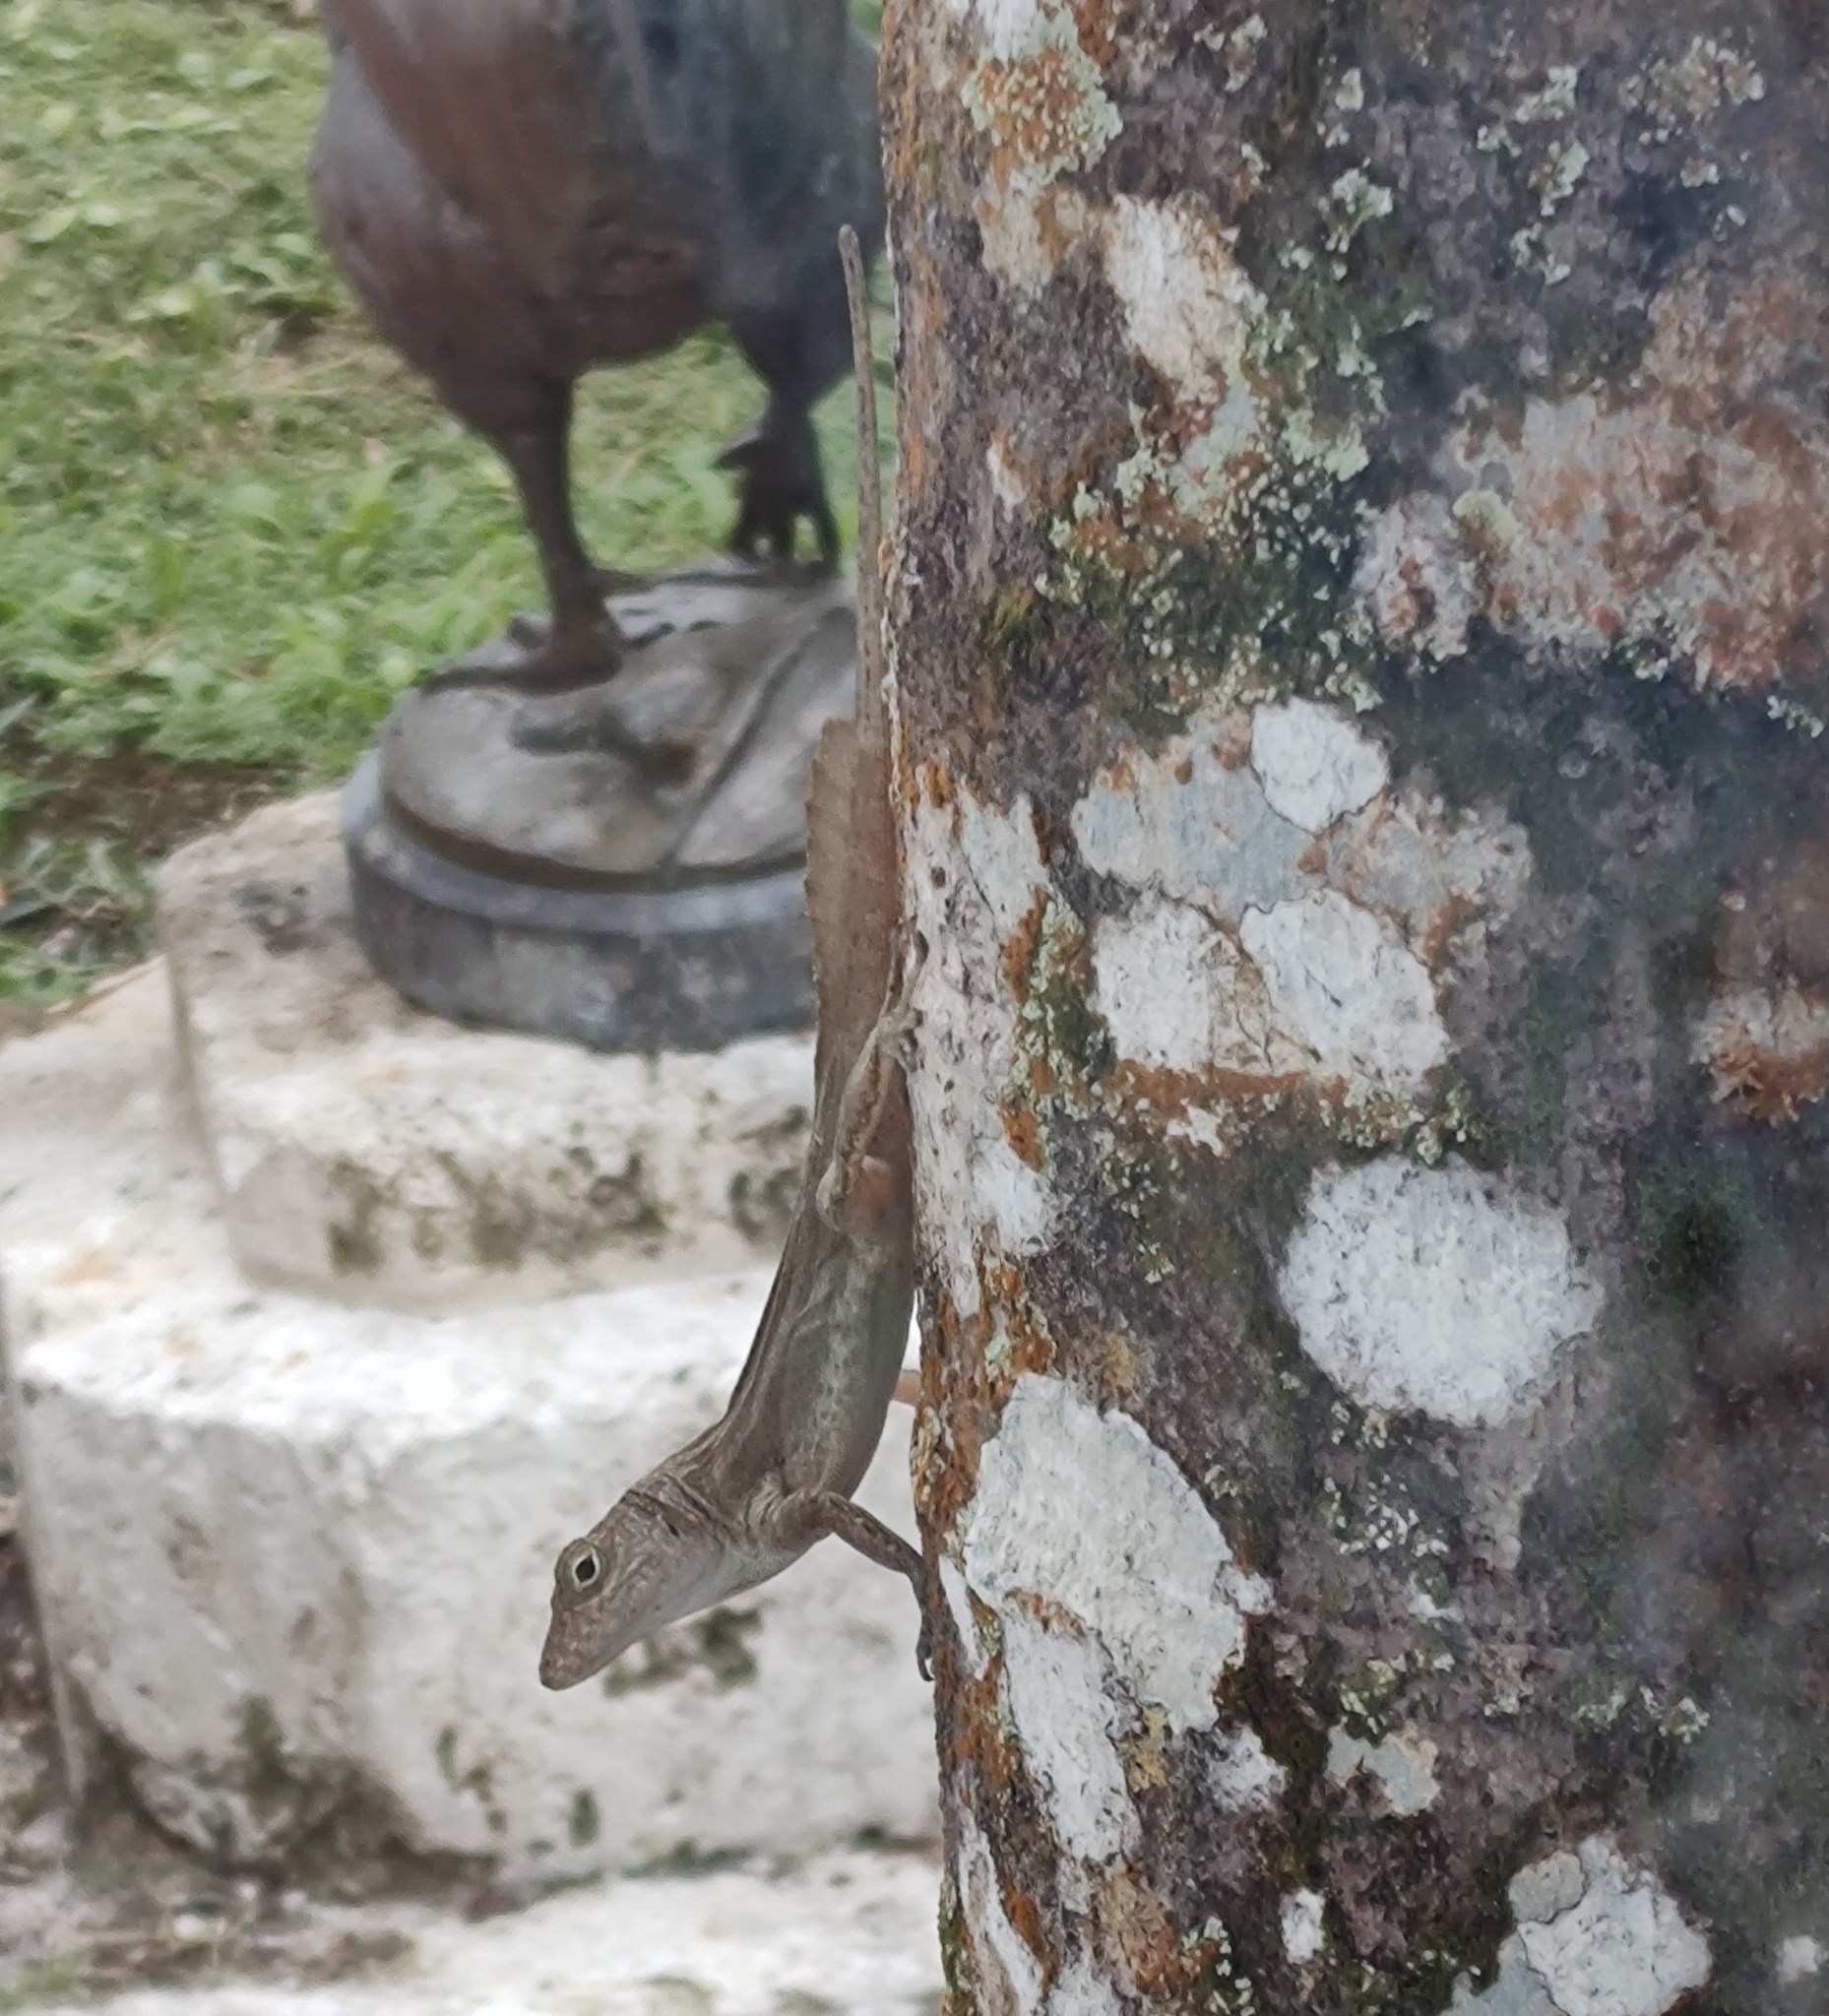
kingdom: Animalia
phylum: Chordata
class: Squamata
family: Dactyloidae
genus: Anolis
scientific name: Anolis cristatellus
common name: Crested anole
